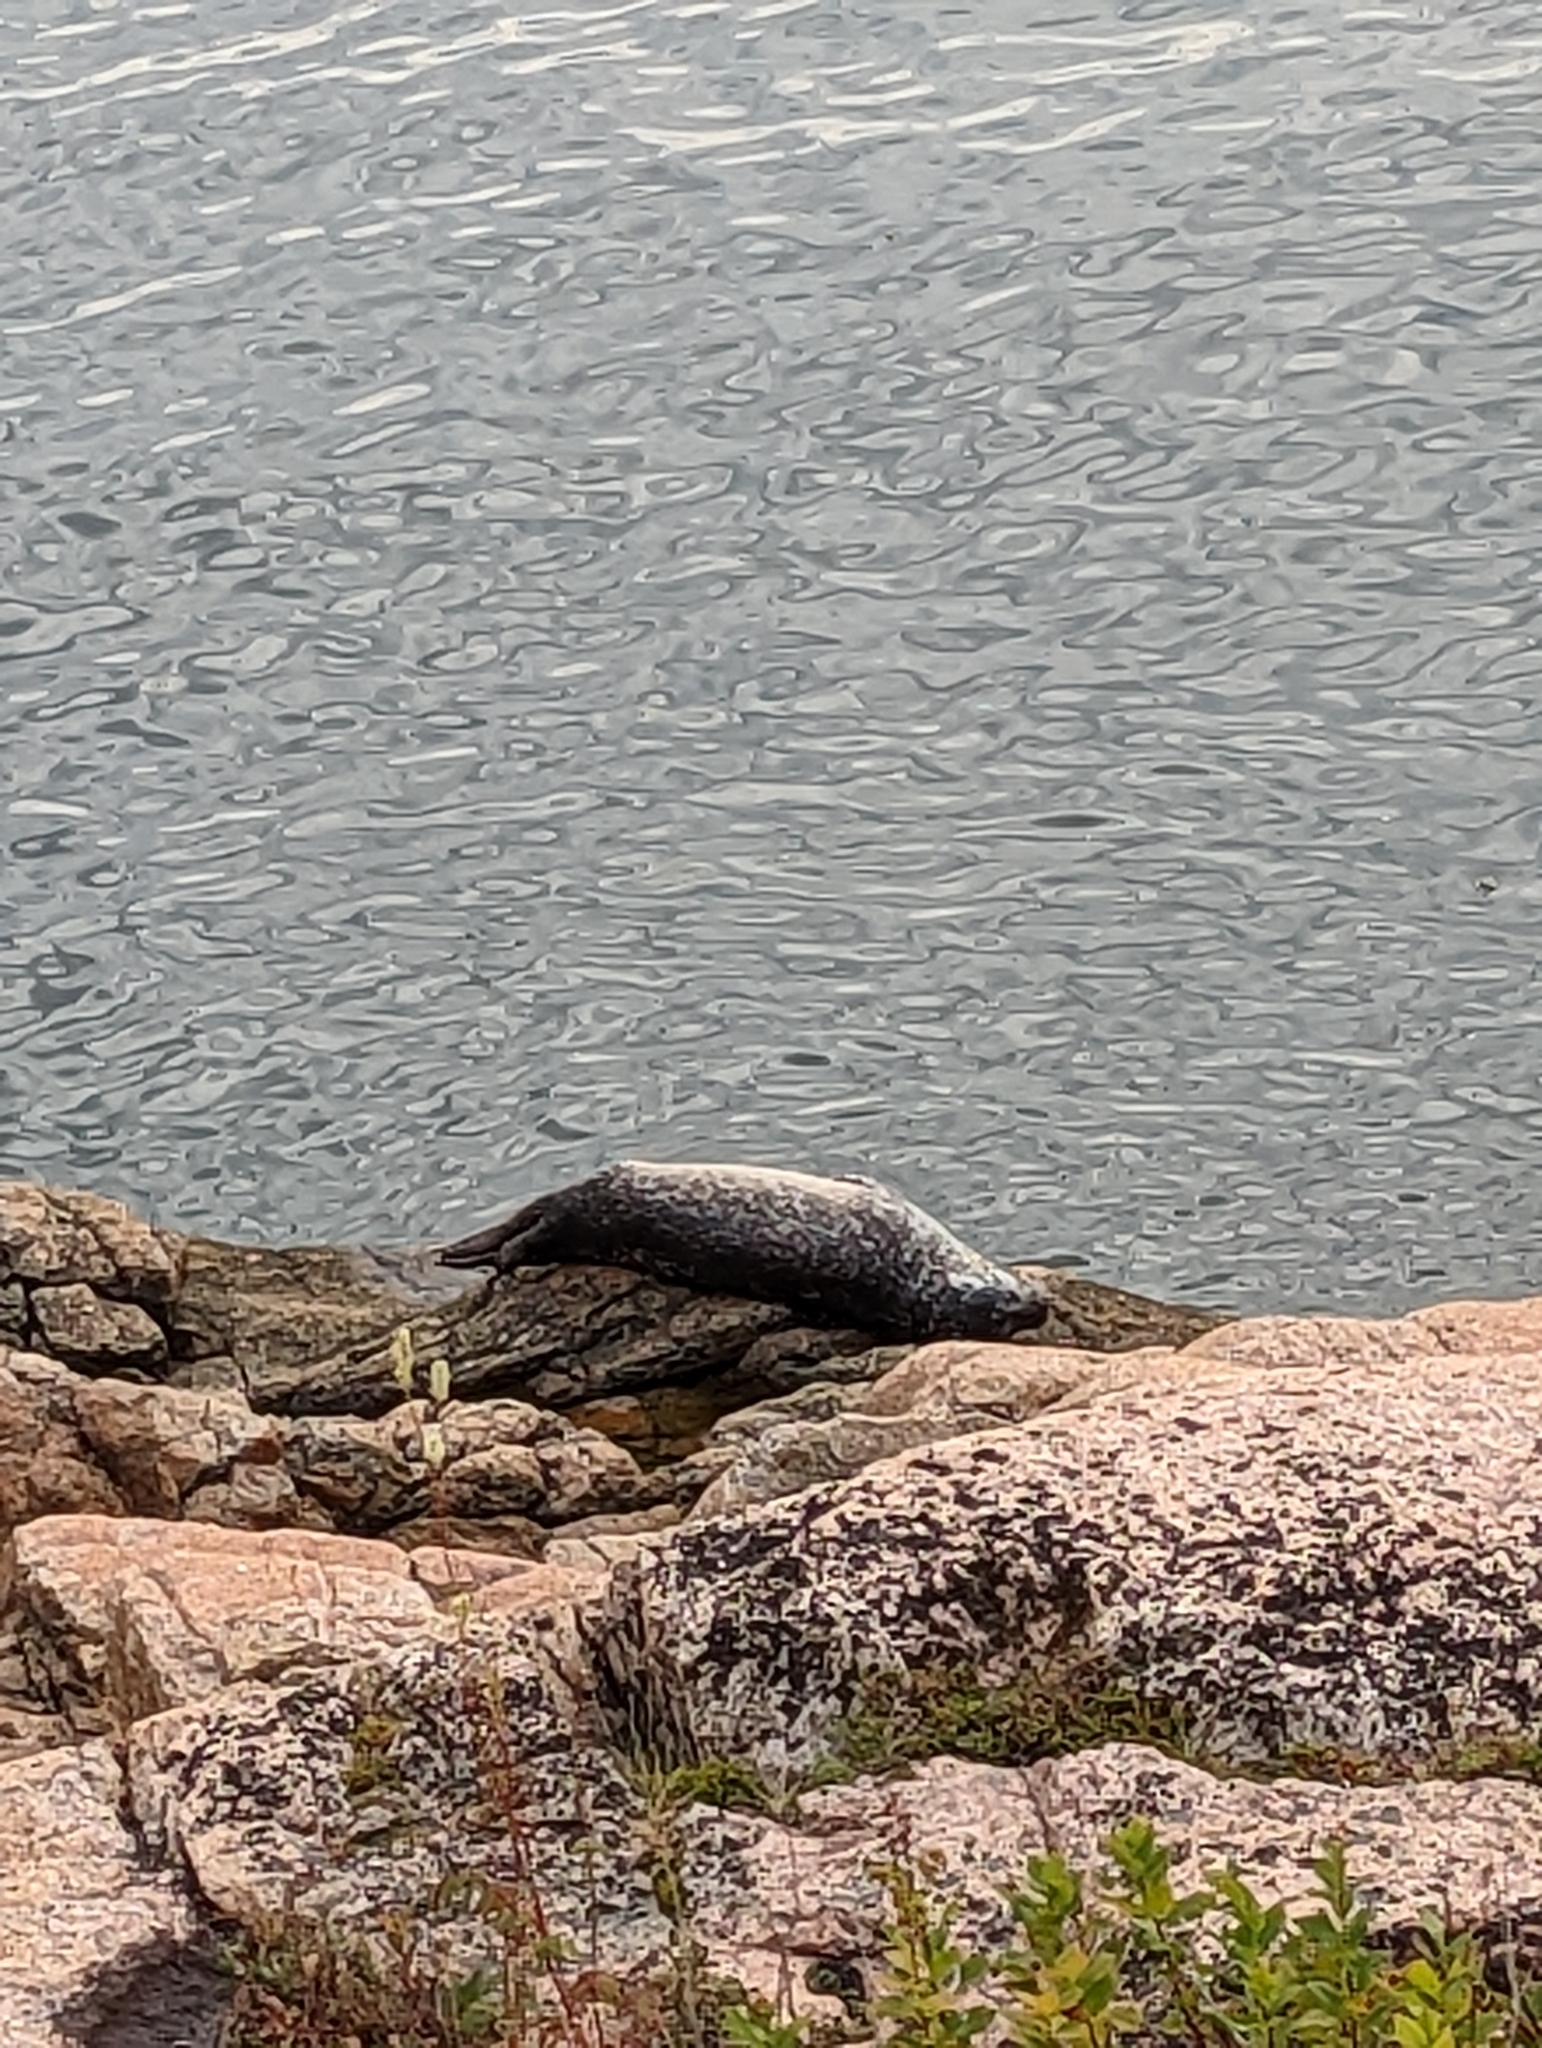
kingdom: Animalia
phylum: Chordata
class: Mammalia
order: Carnivora
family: Phocidae
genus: Phoca
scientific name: Phoca vitulina
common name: Harbor seal
